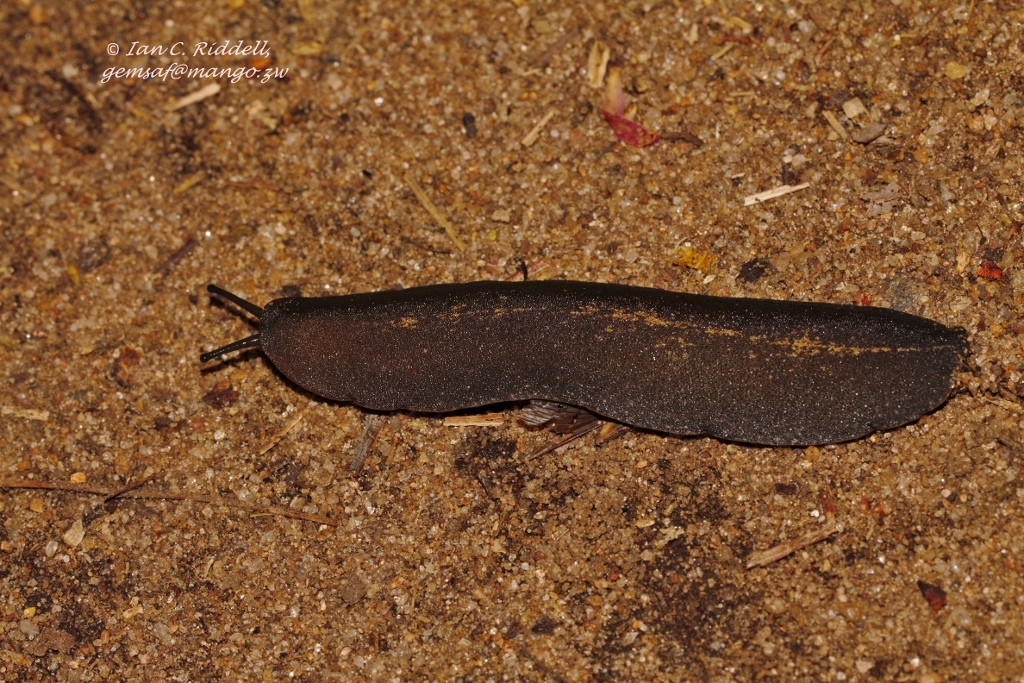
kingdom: Animalia
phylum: Mollusca
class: Gastropoda
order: Systellommatophora
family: Veronicellidae
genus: Laevicaulis
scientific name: Laevicaulis alte
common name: Tropical leatherleaf
